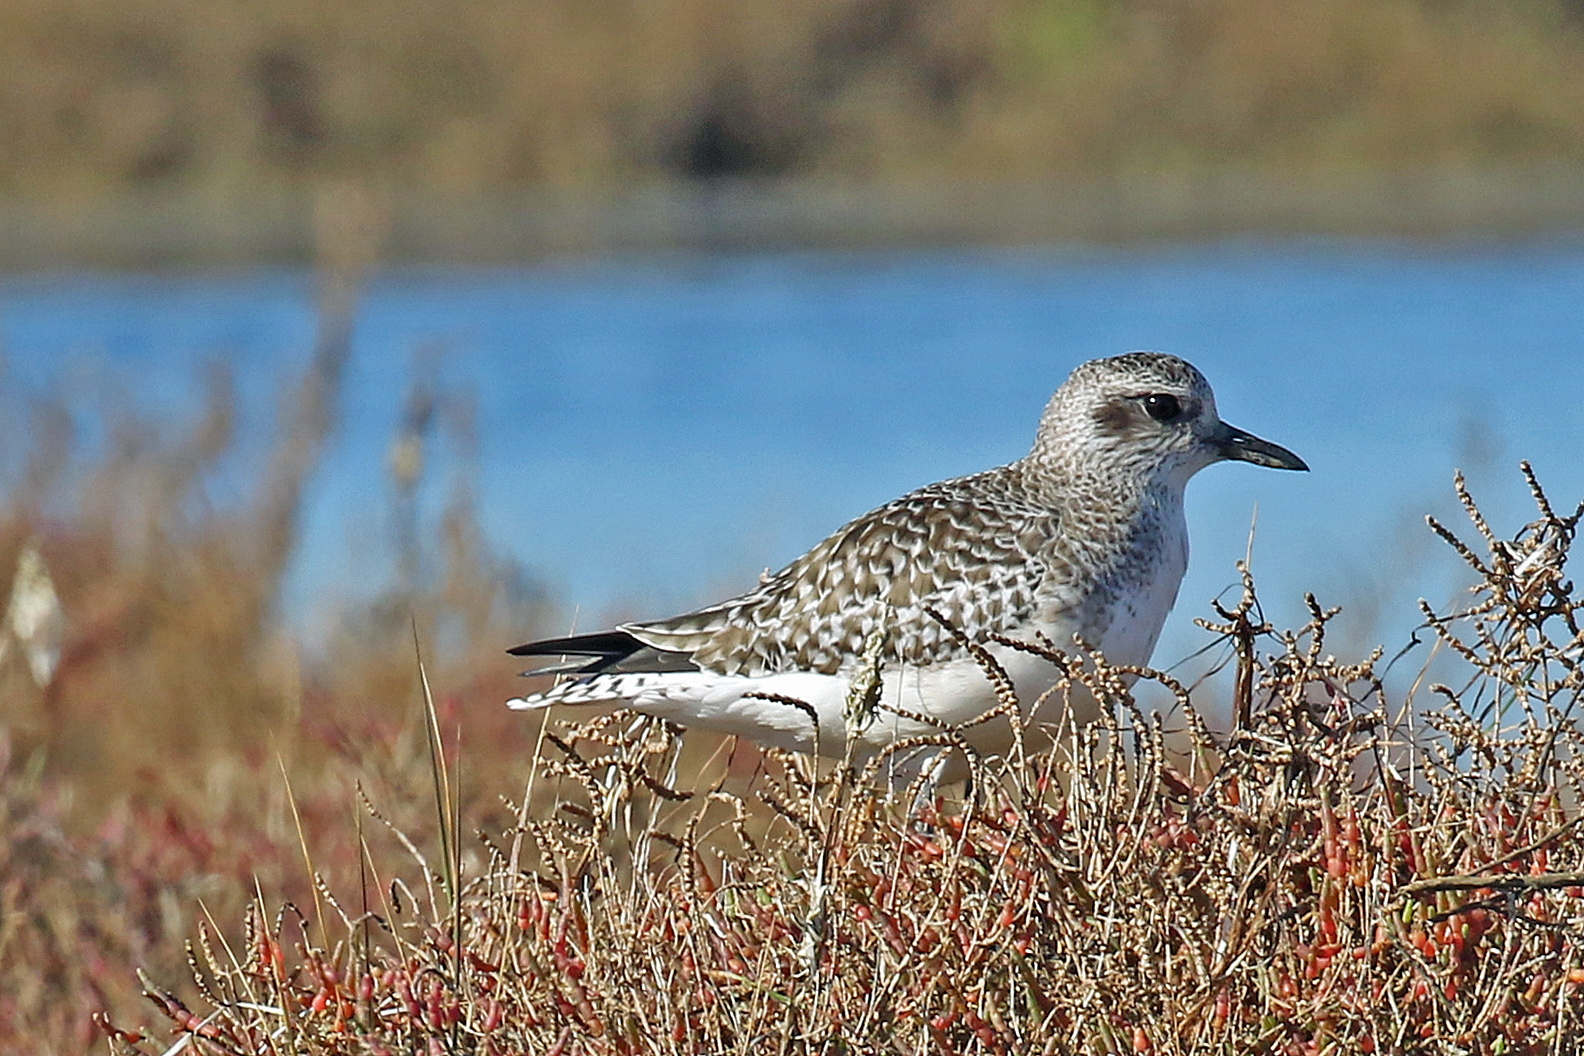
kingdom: Animalia
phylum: Chordata
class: Aves
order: Charadriiformes
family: Charadriidae
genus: Pluvialis
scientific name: Pluvialis squatarola
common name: Grey plover
